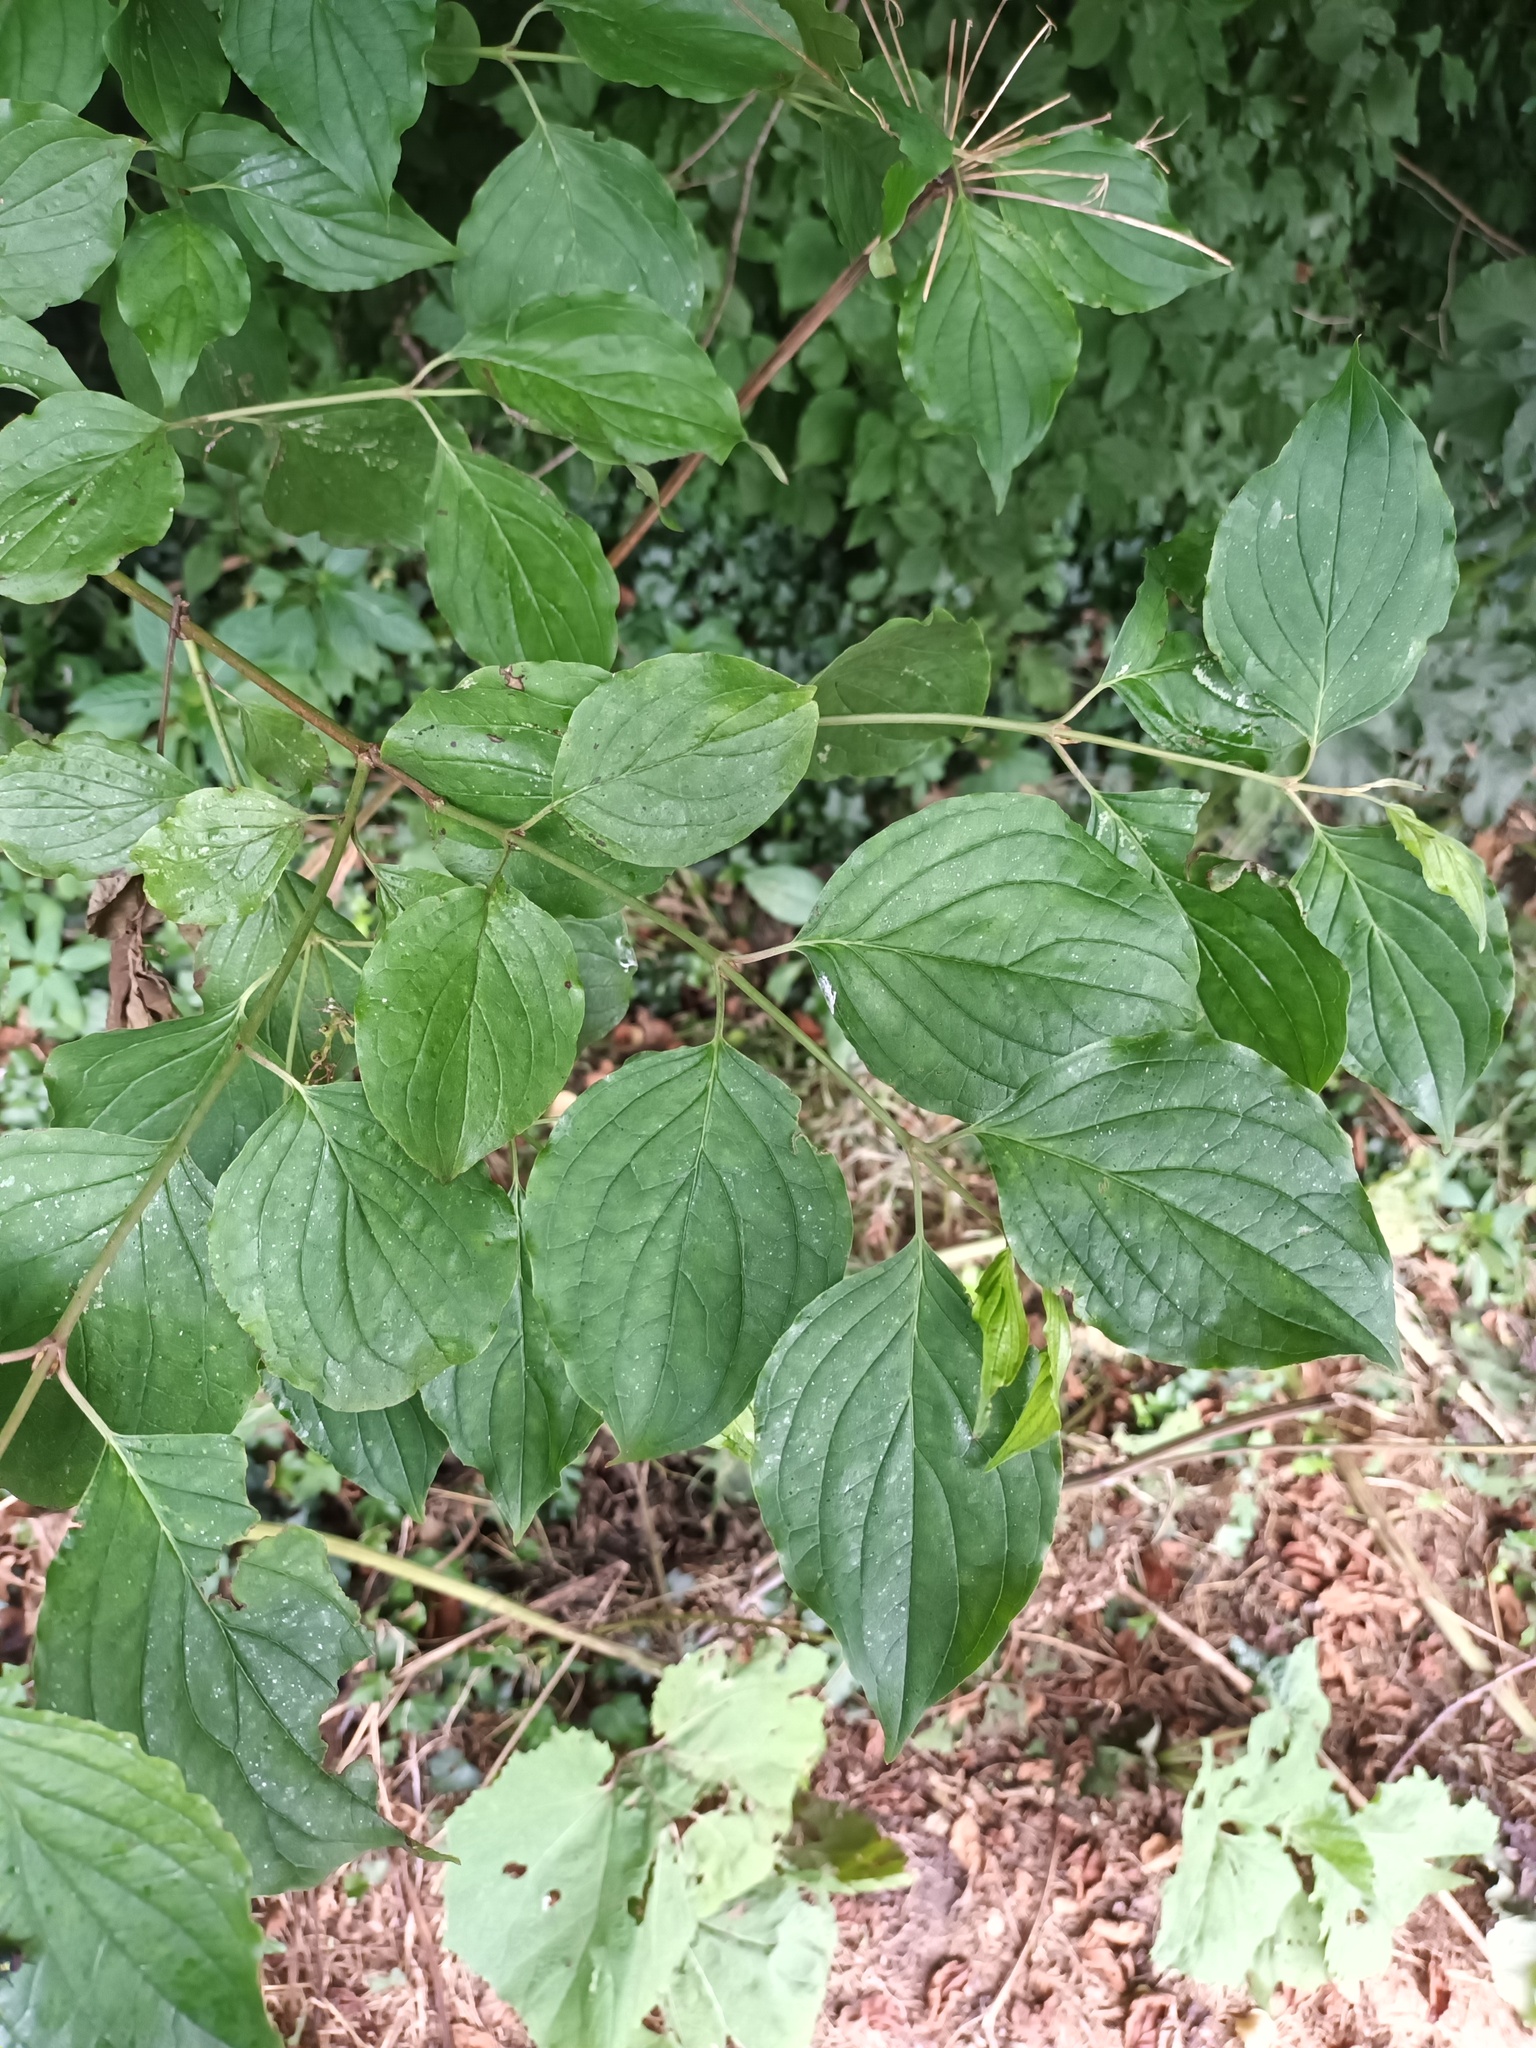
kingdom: Plantae
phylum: Tracheophyta
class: Magnoliopsida
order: Cornales
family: Cornaceae
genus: Cornus
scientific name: Cornus sanguinea
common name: Dogwood
